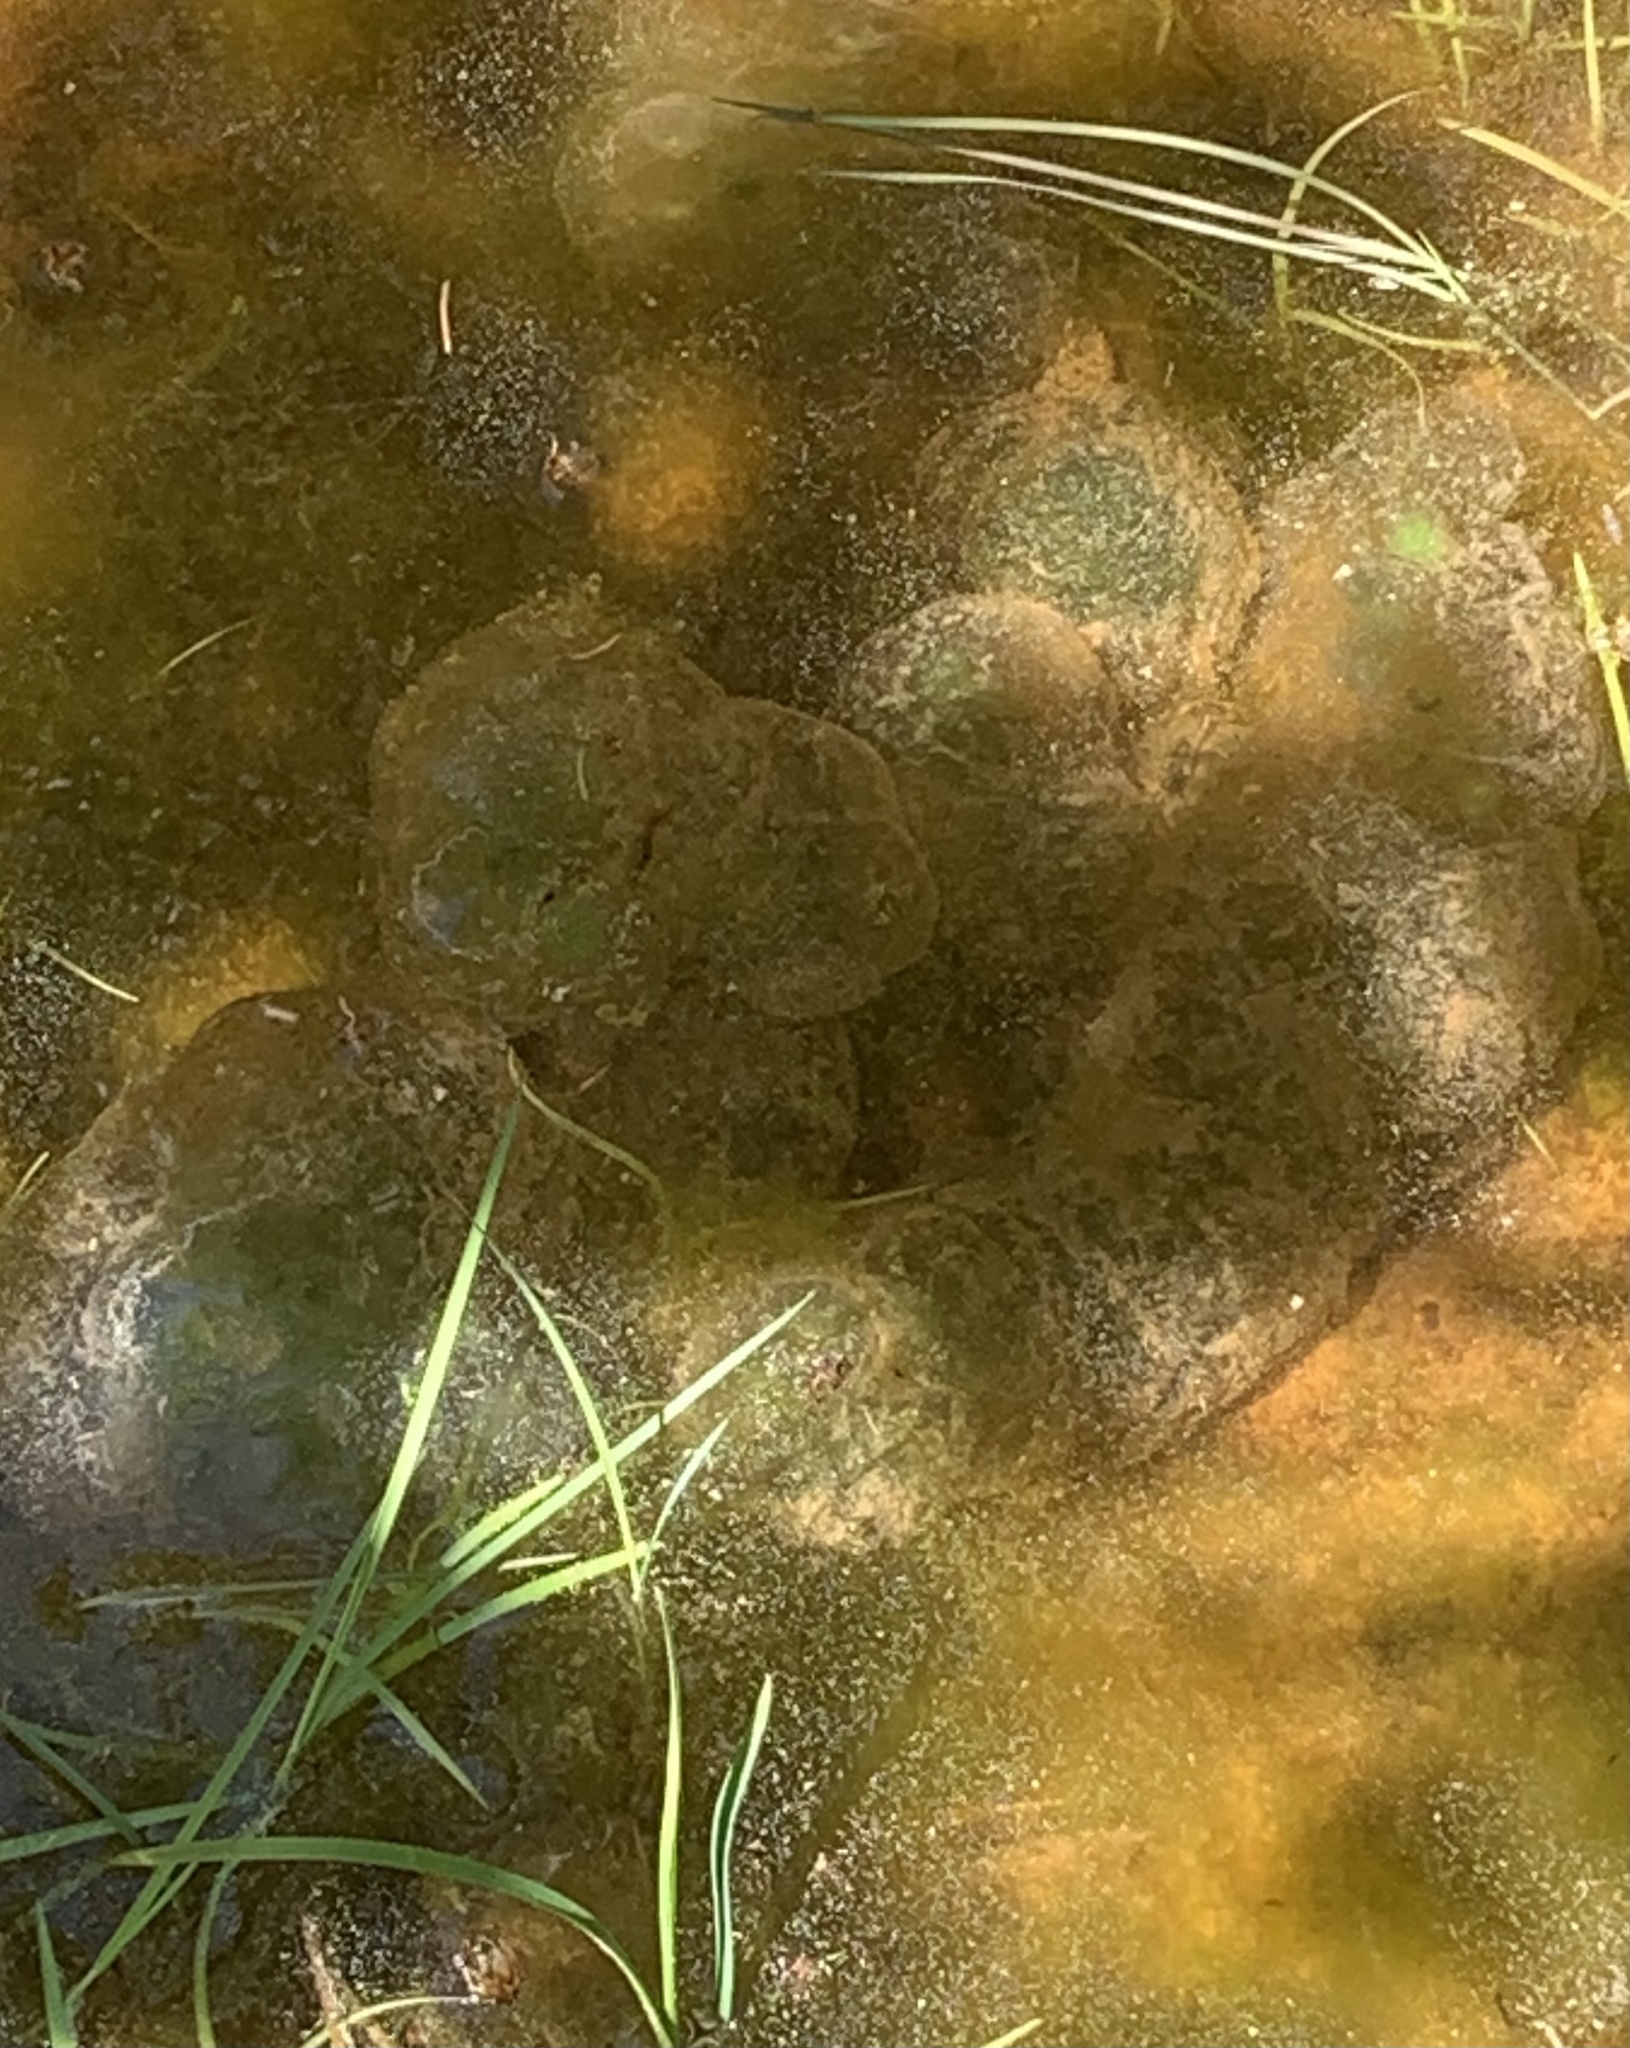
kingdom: Animalia
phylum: Chordata
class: Amphibia
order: Caudata
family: Ambystomatidae
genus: Ambystoma
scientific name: Ambystoma maculatum
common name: Spotted salamander
